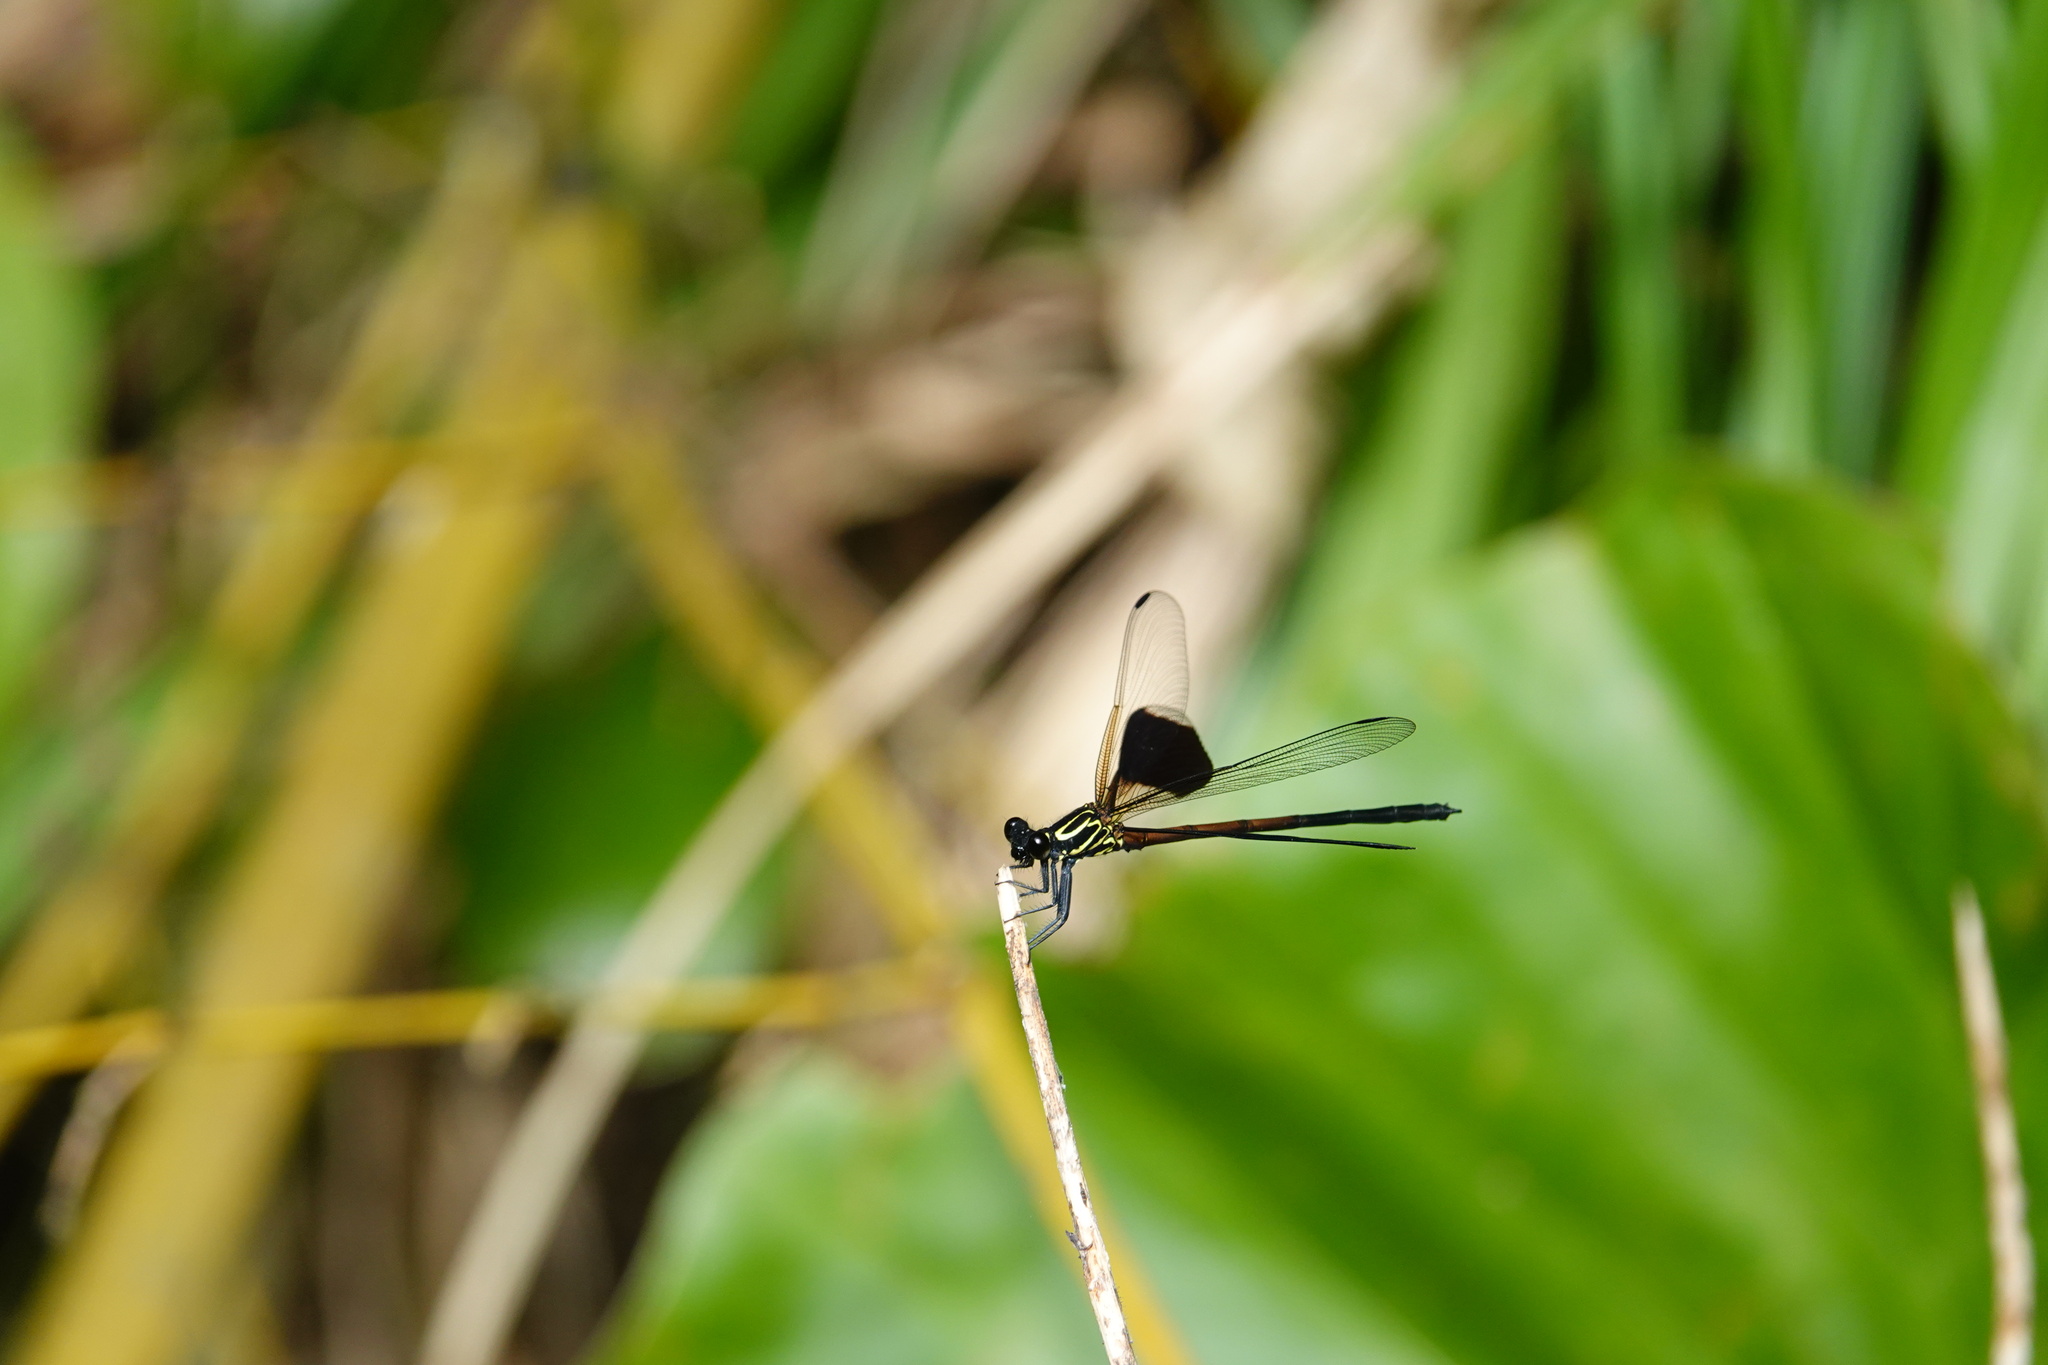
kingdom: Animalia
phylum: Arthropoda
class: Insecta
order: Odonata
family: Euphaeidae
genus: Euphaea
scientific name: Euphaea formosa
